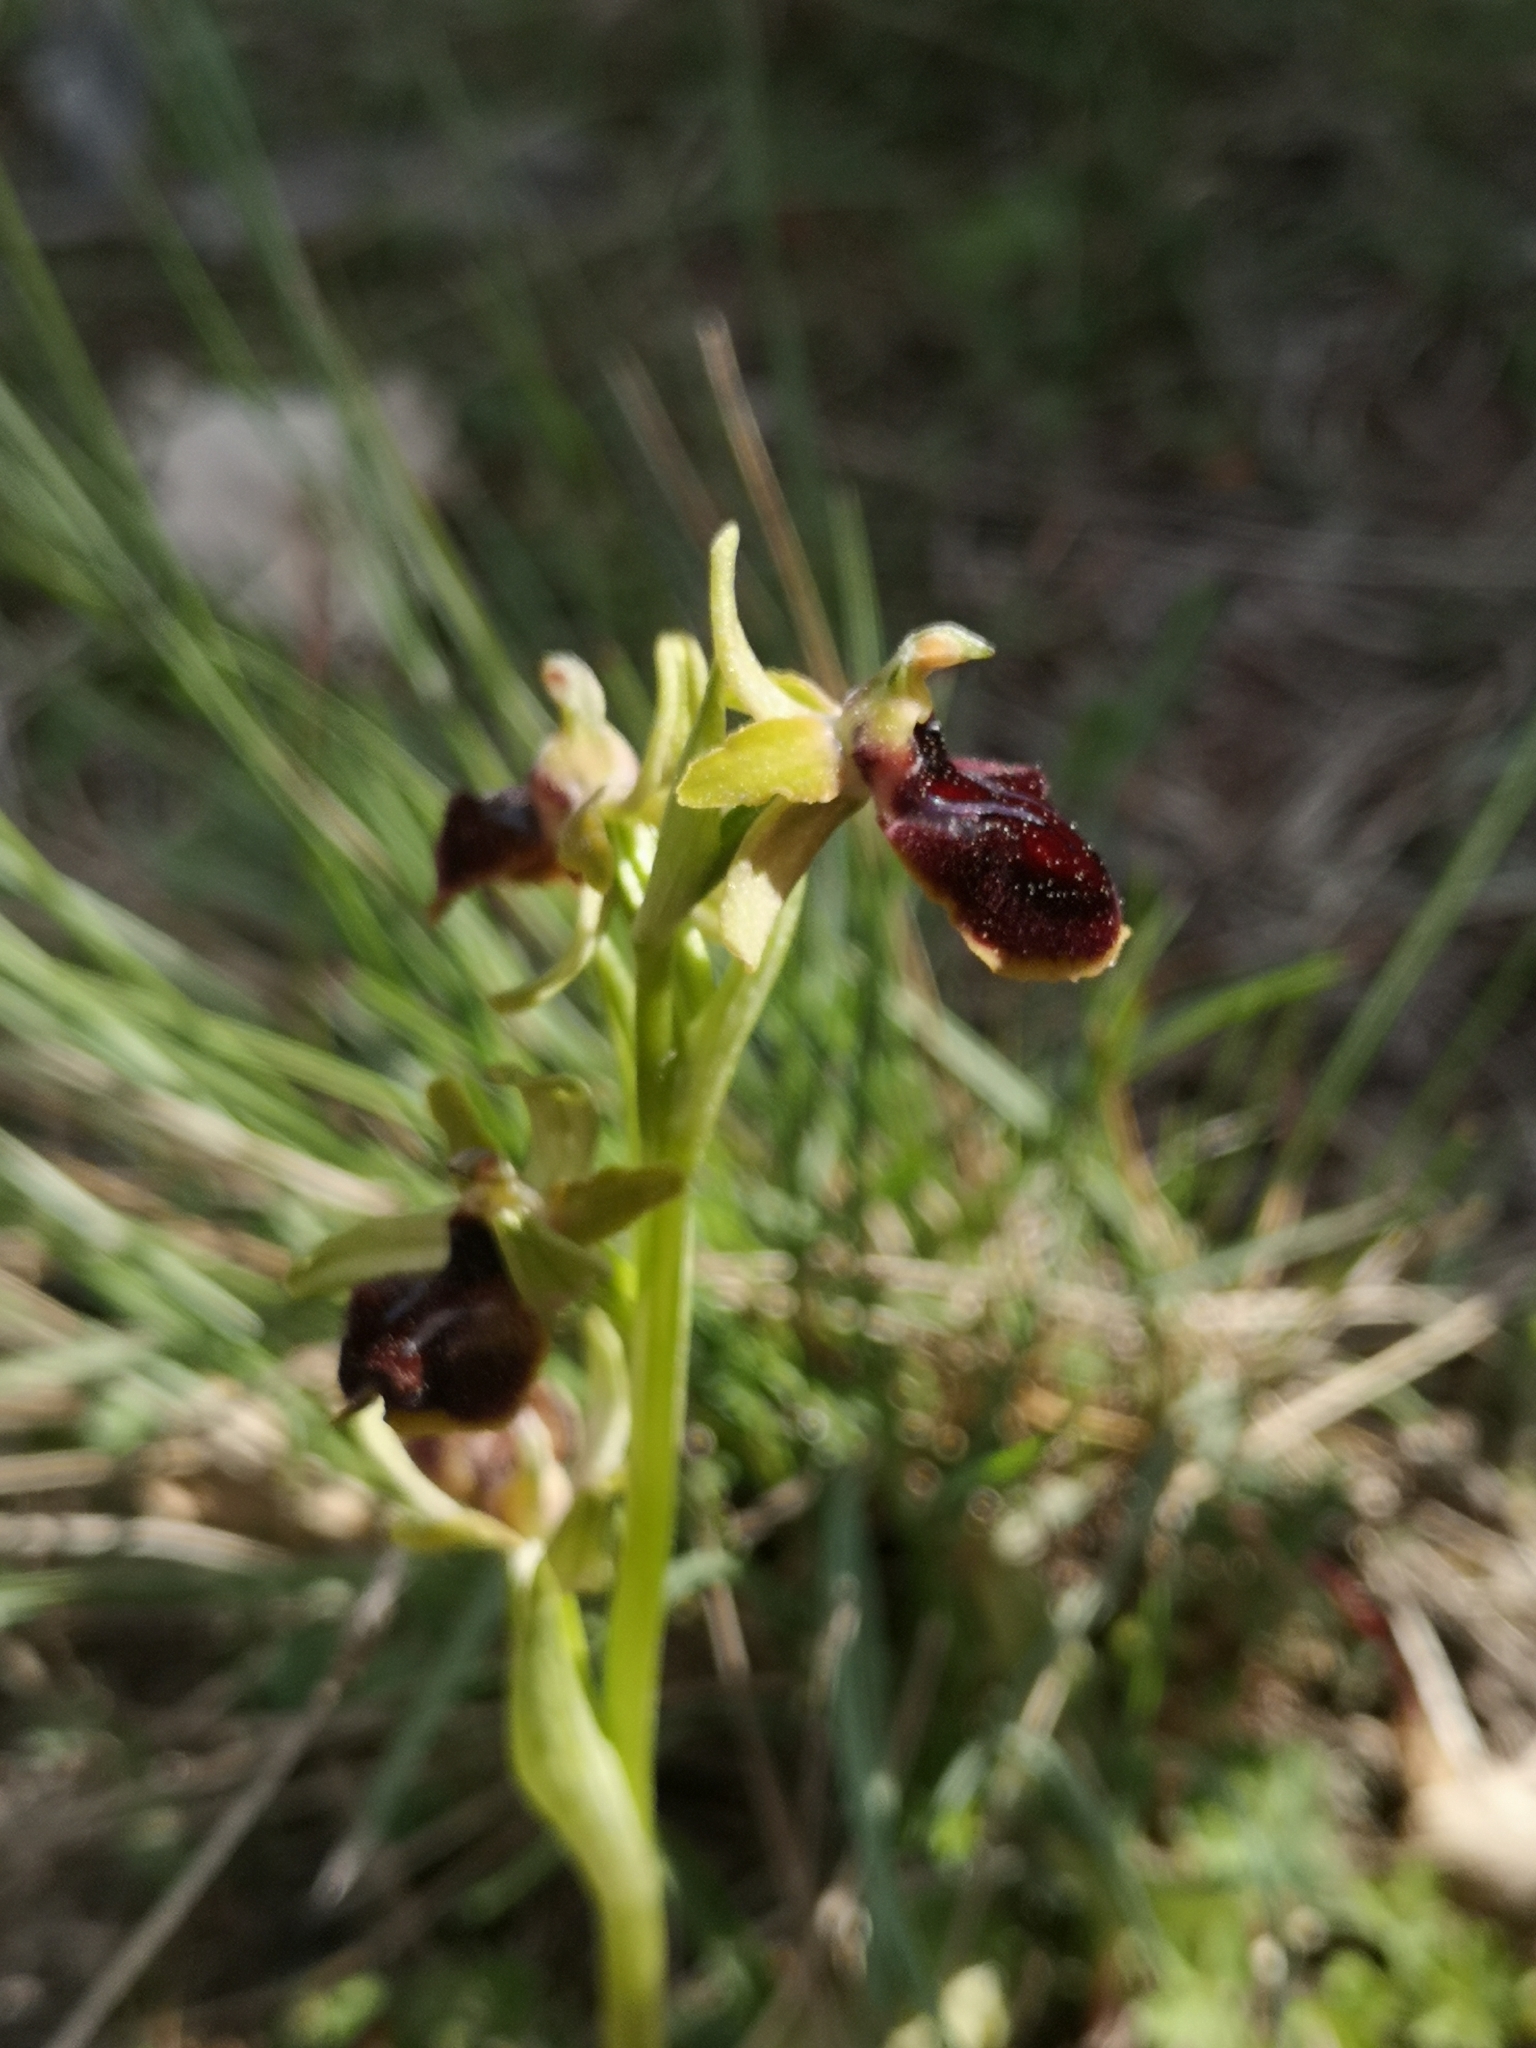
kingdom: Plantae
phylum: Tracheophyta
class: Liliopsida
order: Asparagales
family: Orchidaceae
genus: Ophrys
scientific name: Ophrys sphegodes
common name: Early spider-orchid
